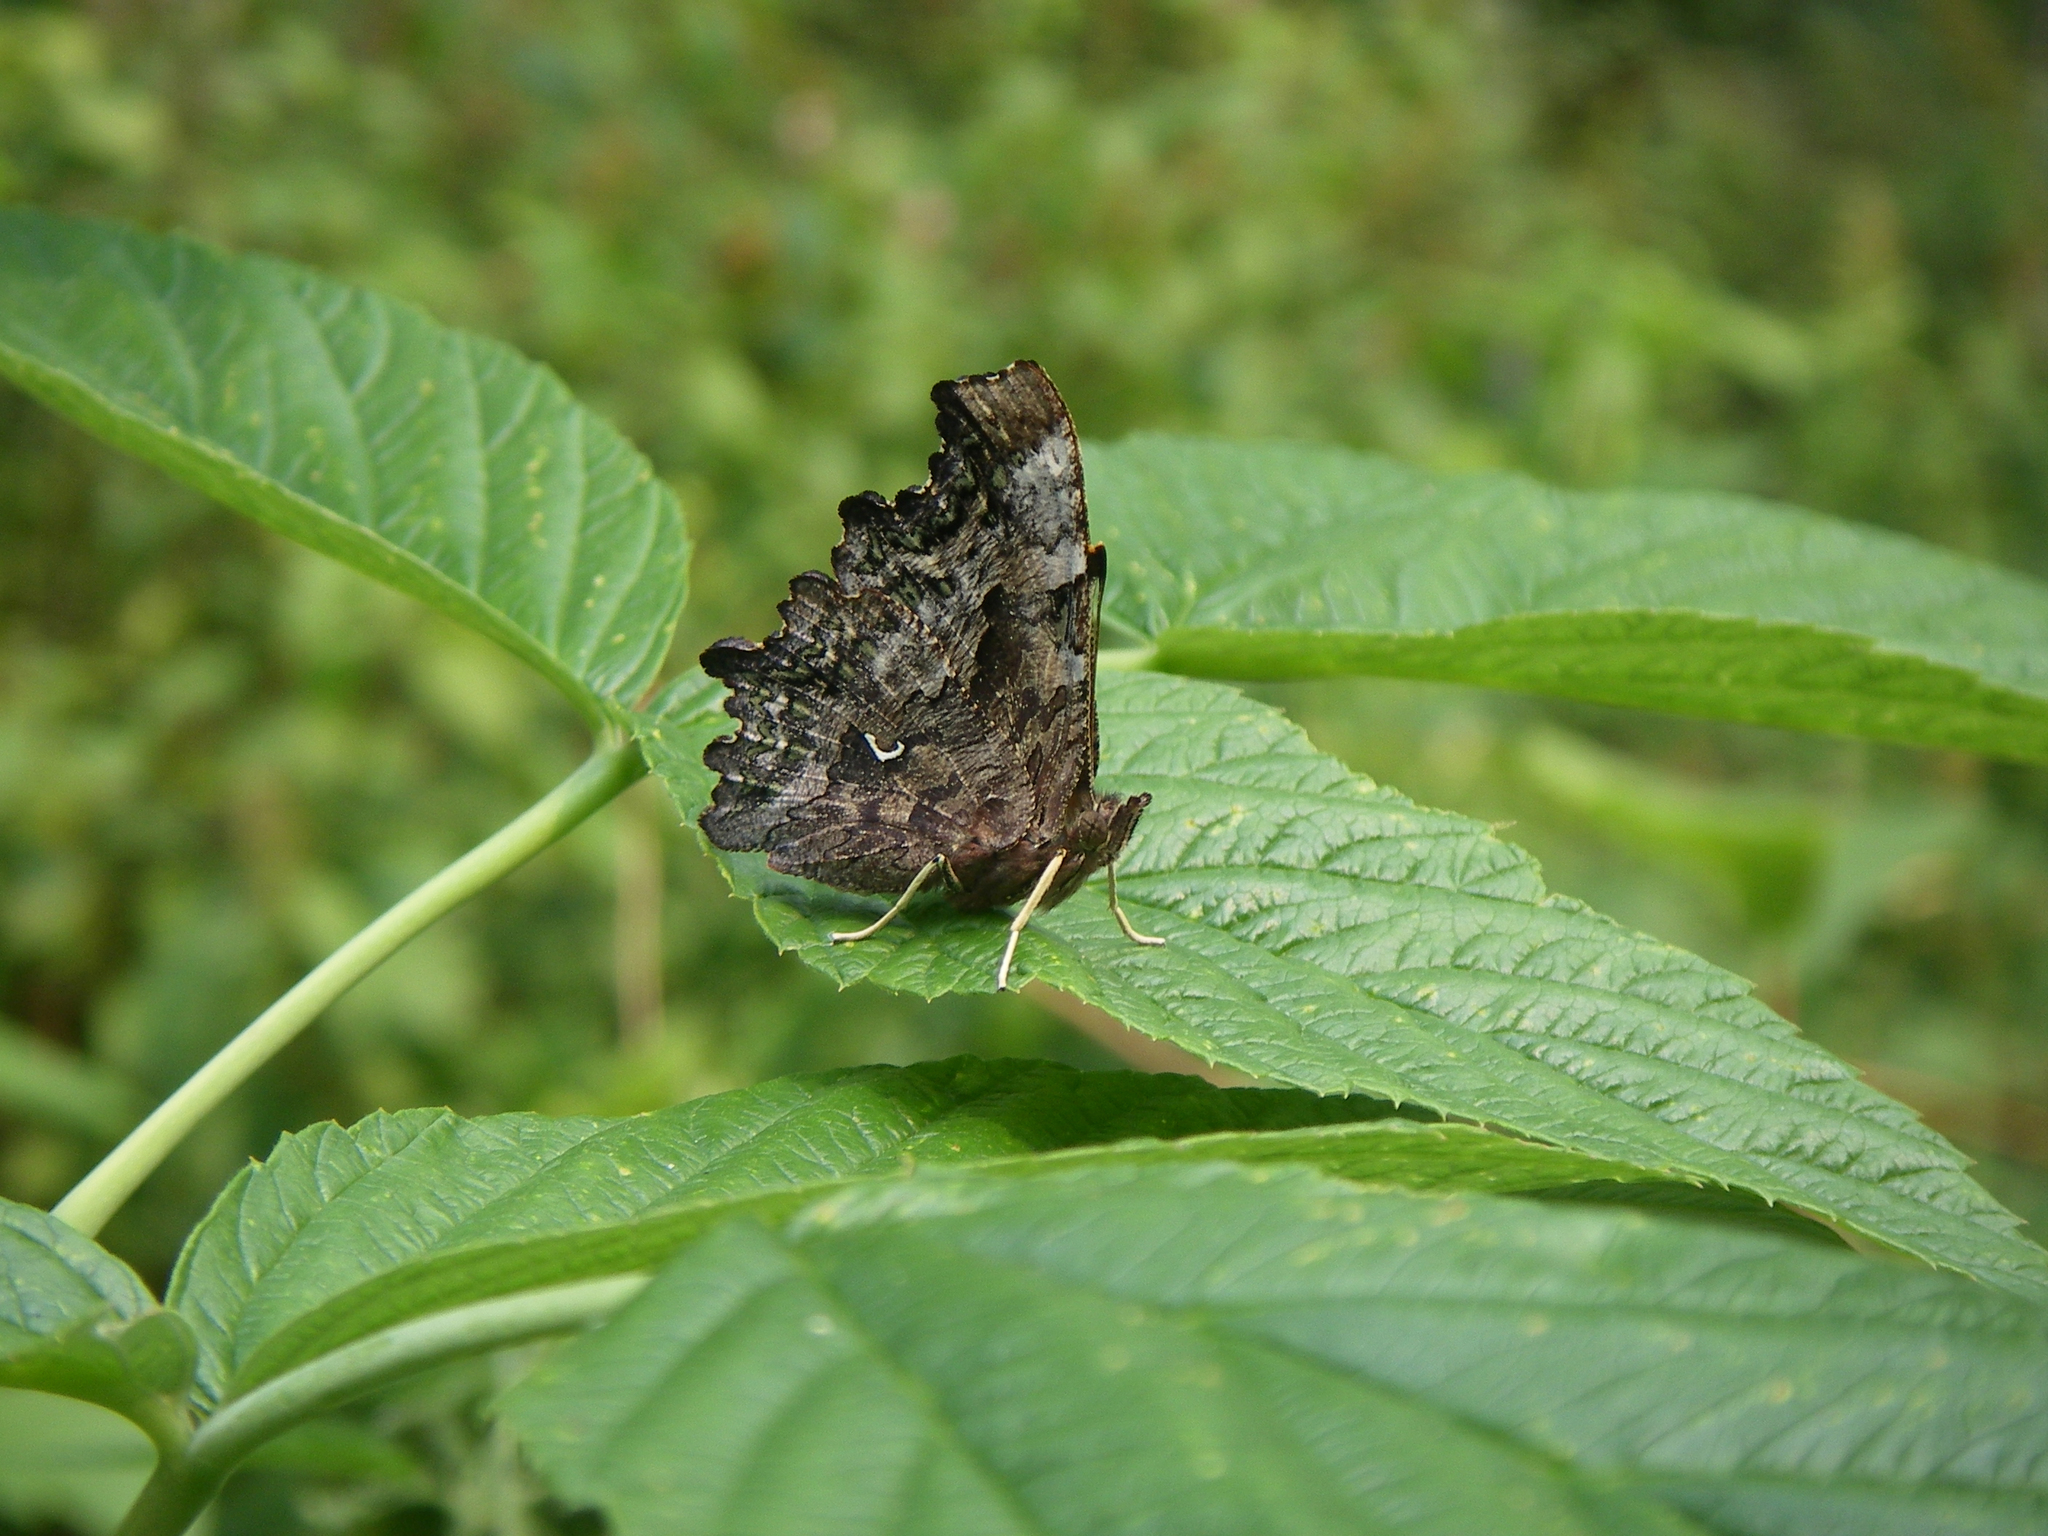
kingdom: Animalia
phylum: Arthropoda
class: Insecta
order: Lepidoptera
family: Nymphalidae
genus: Polygonia
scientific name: Polygonia c-album
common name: Comma
